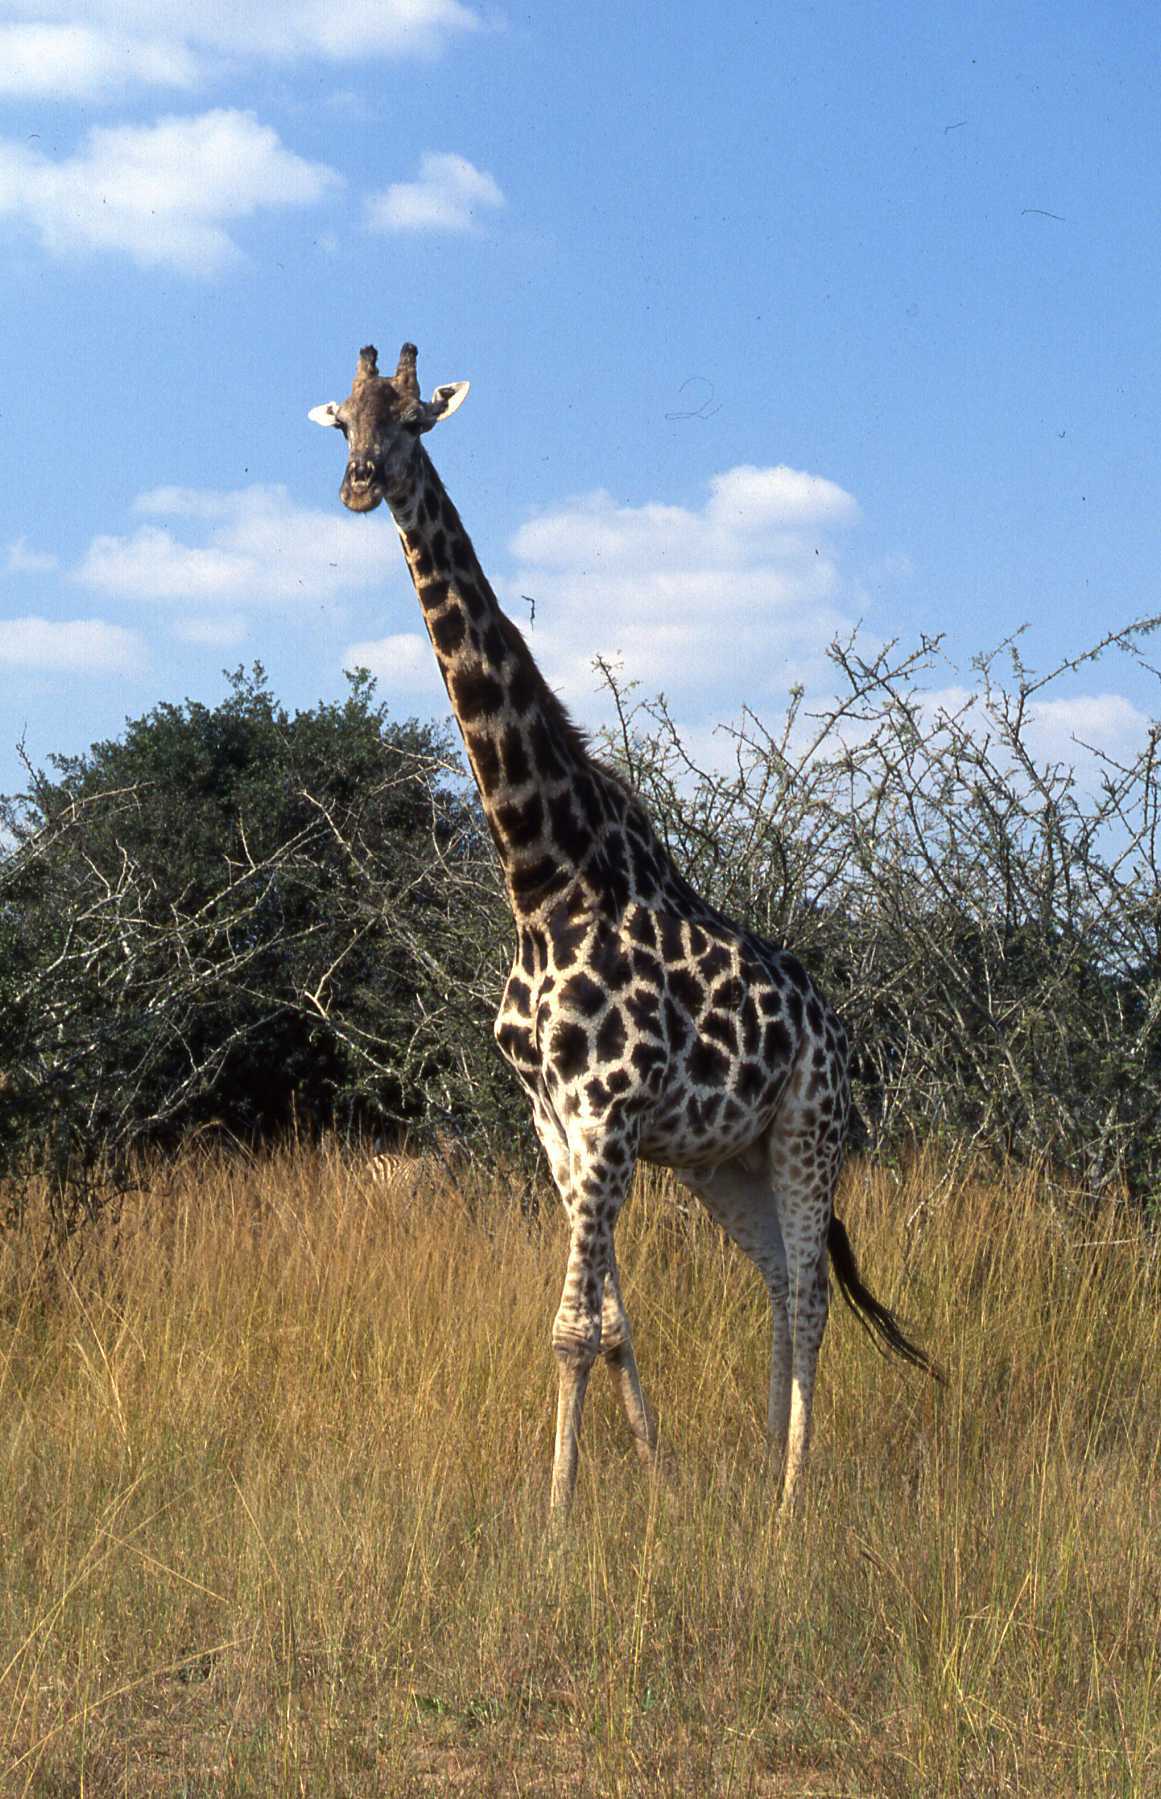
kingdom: Animalia
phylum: Chordata
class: Mammalia
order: Artiodactyla
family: Giraffidae
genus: Giraffa
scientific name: Giraffa giraffa
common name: Southern giraffe
